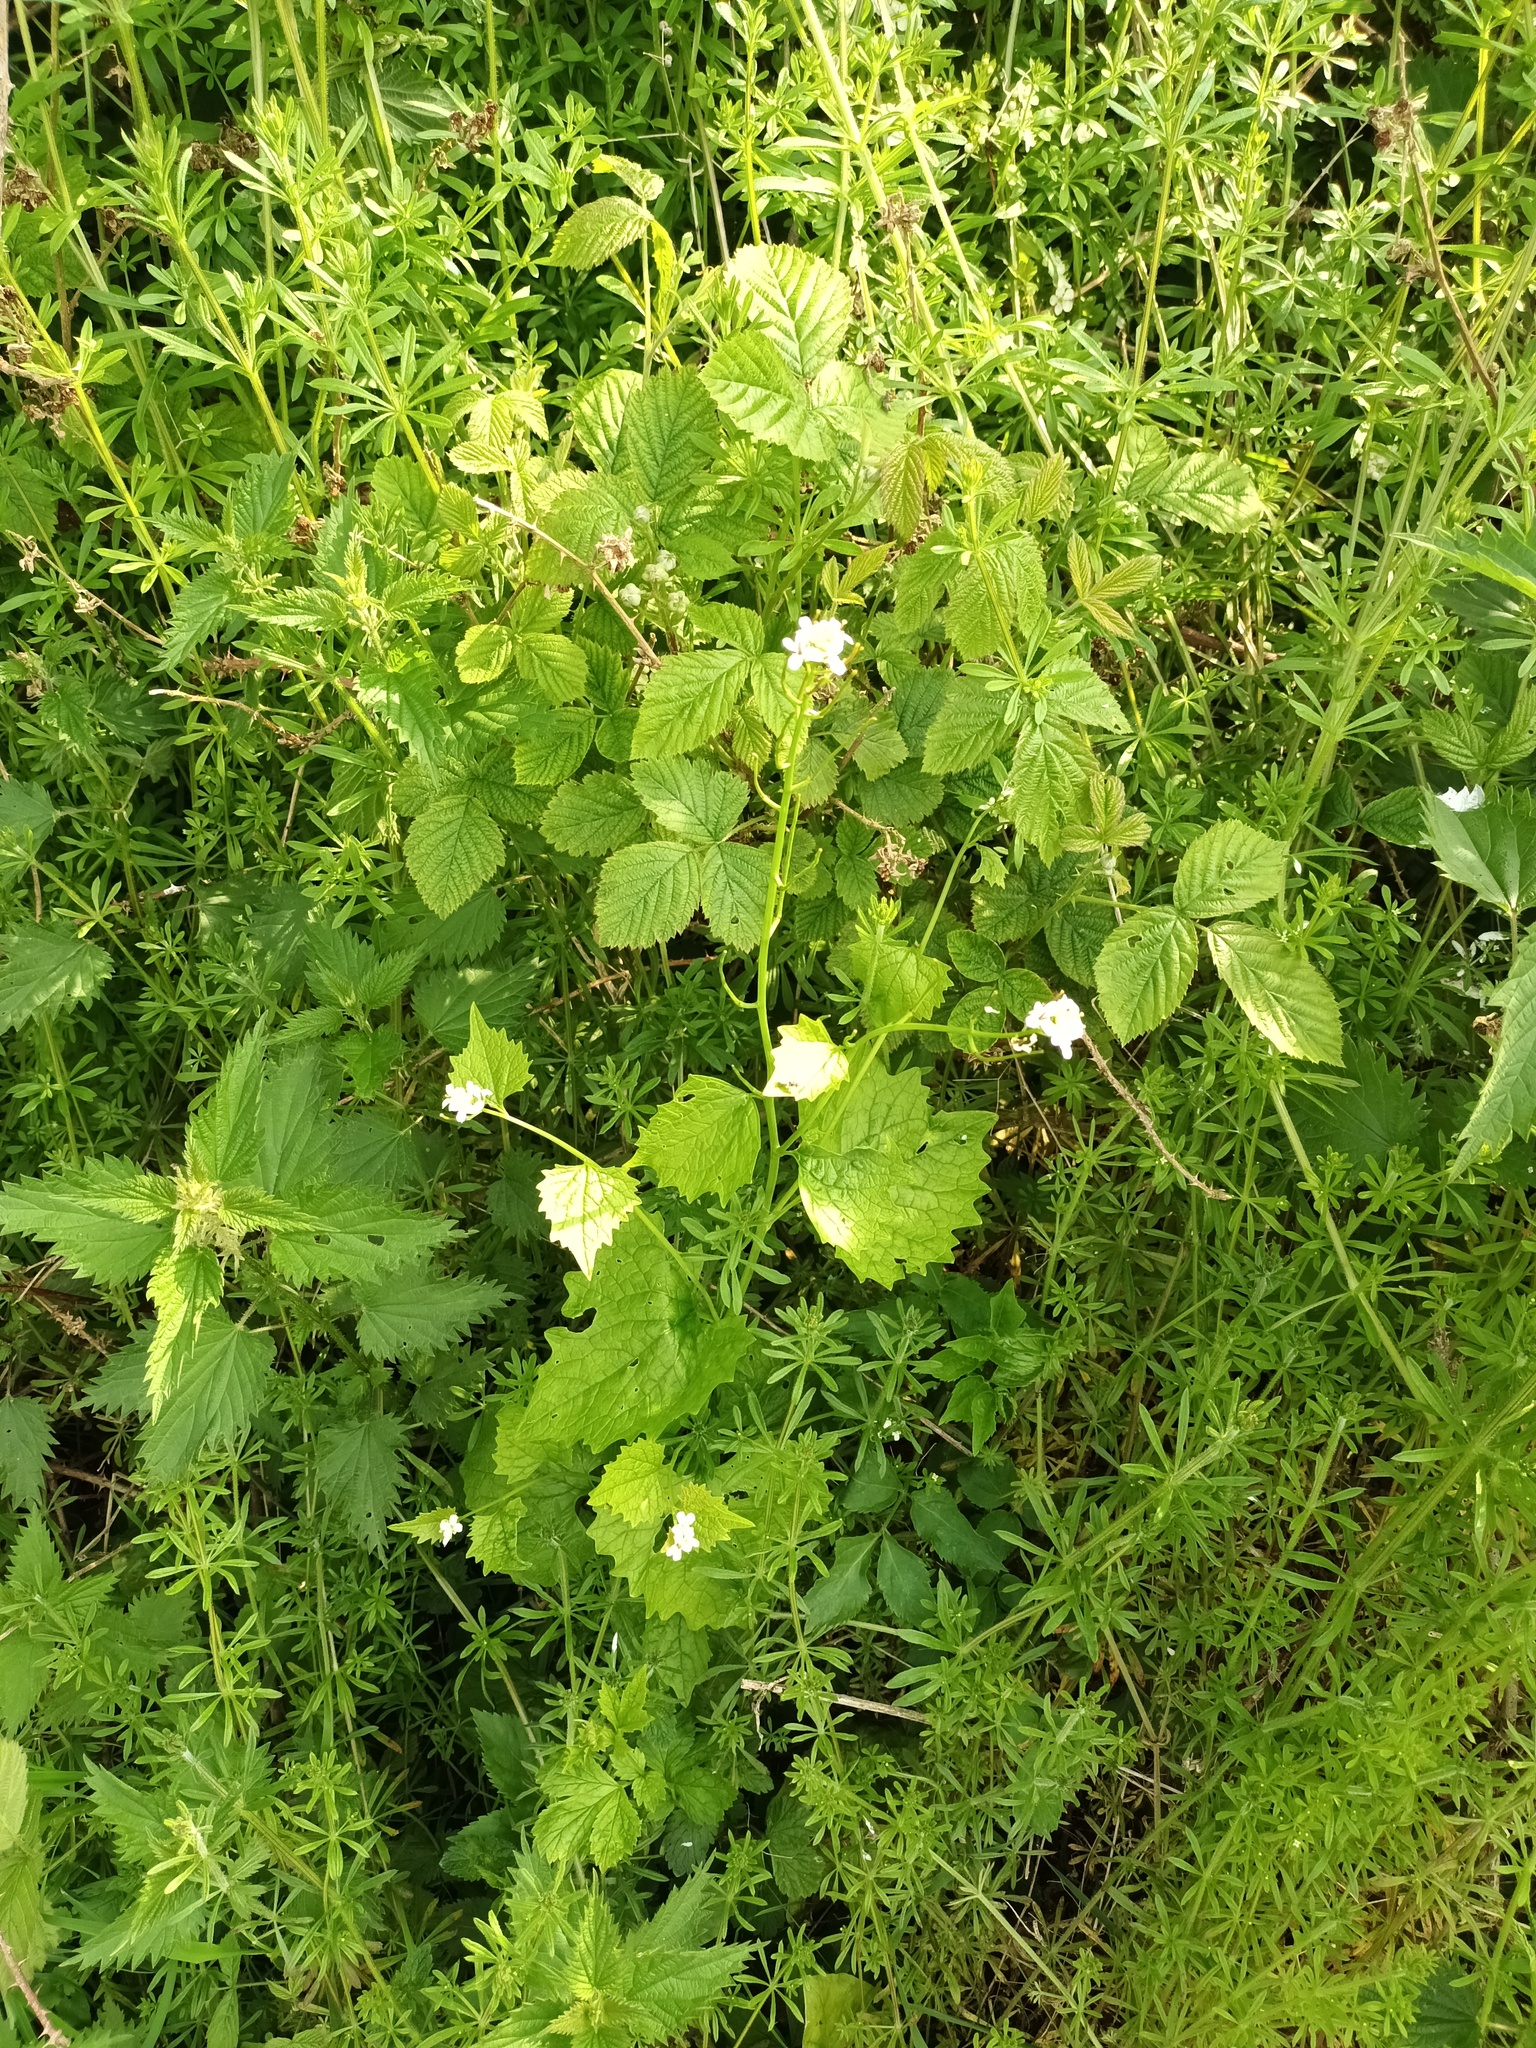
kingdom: Plantae
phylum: Tracheophyta
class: Magnoliopsida
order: Brassicales
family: Brassicaceae
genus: Alliaria
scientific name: Alliaria petiolata
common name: Garlic mustard
